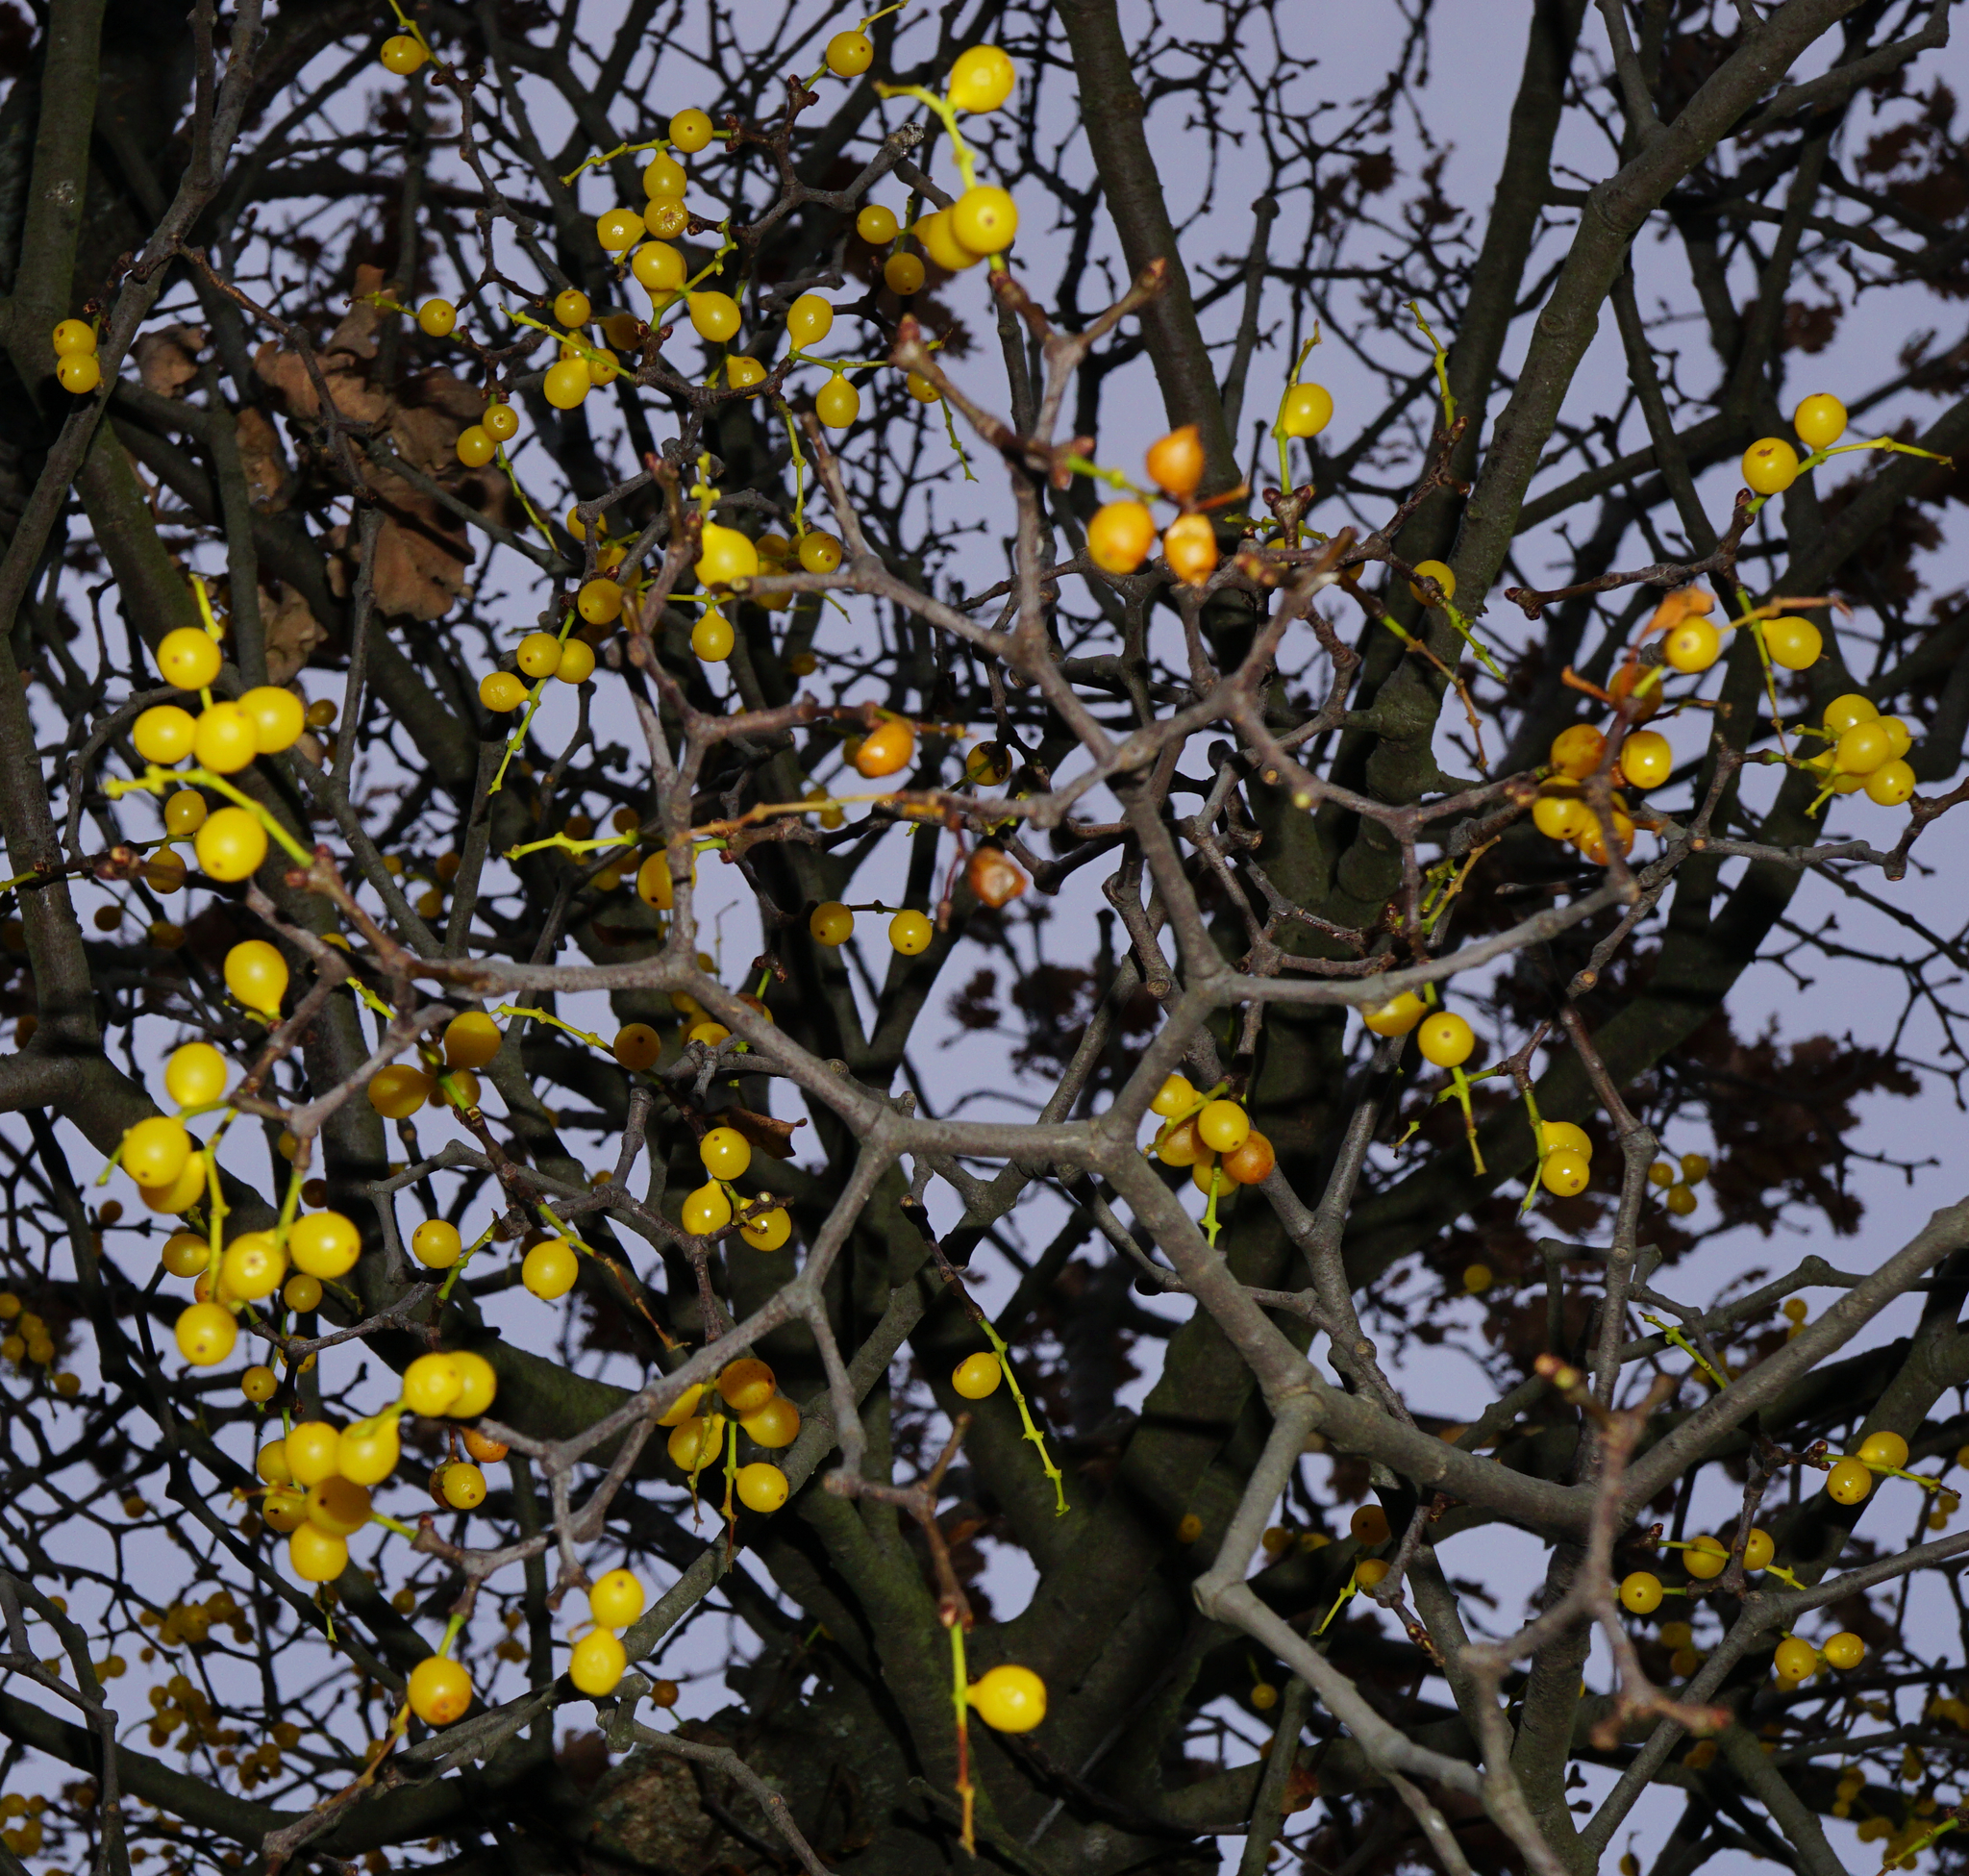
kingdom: Plantae
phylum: Tracheophyta
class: Magnoliopsida
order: Santalales
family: Loranthaceae
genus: Loranthus
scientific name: Loranthus europaeus
